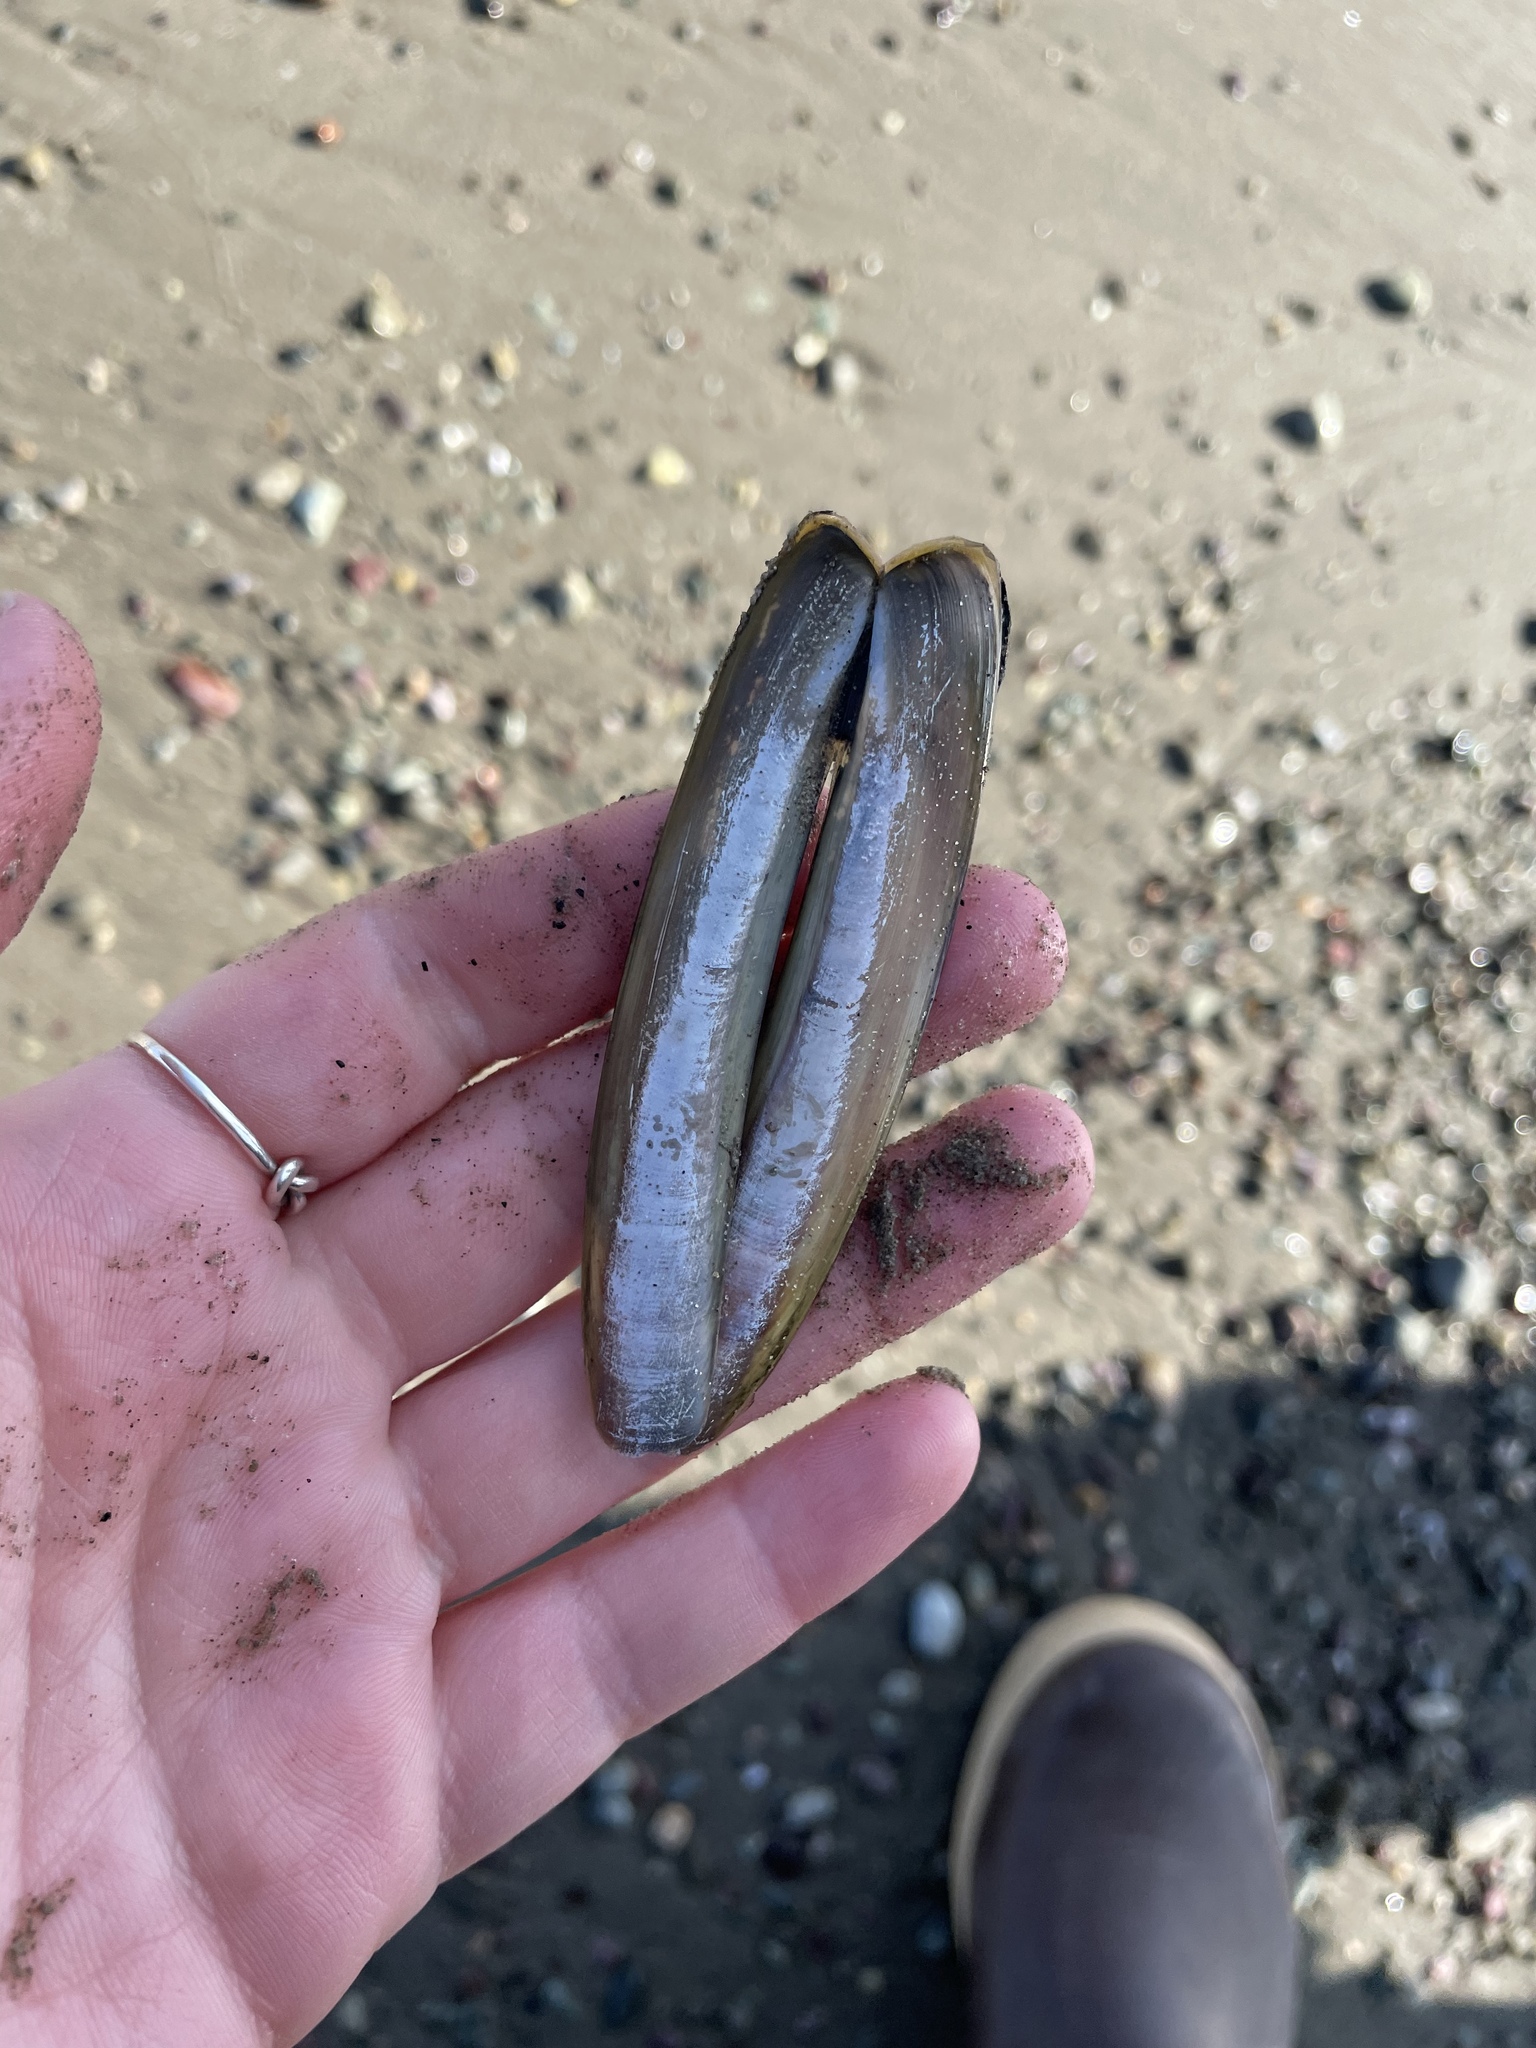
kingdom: Animalia
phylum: Mollusca
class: Bivalvia
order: Adapedonta
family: Pharidae
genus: Ensis
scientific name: Ensis leei
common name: American jack knife clam
